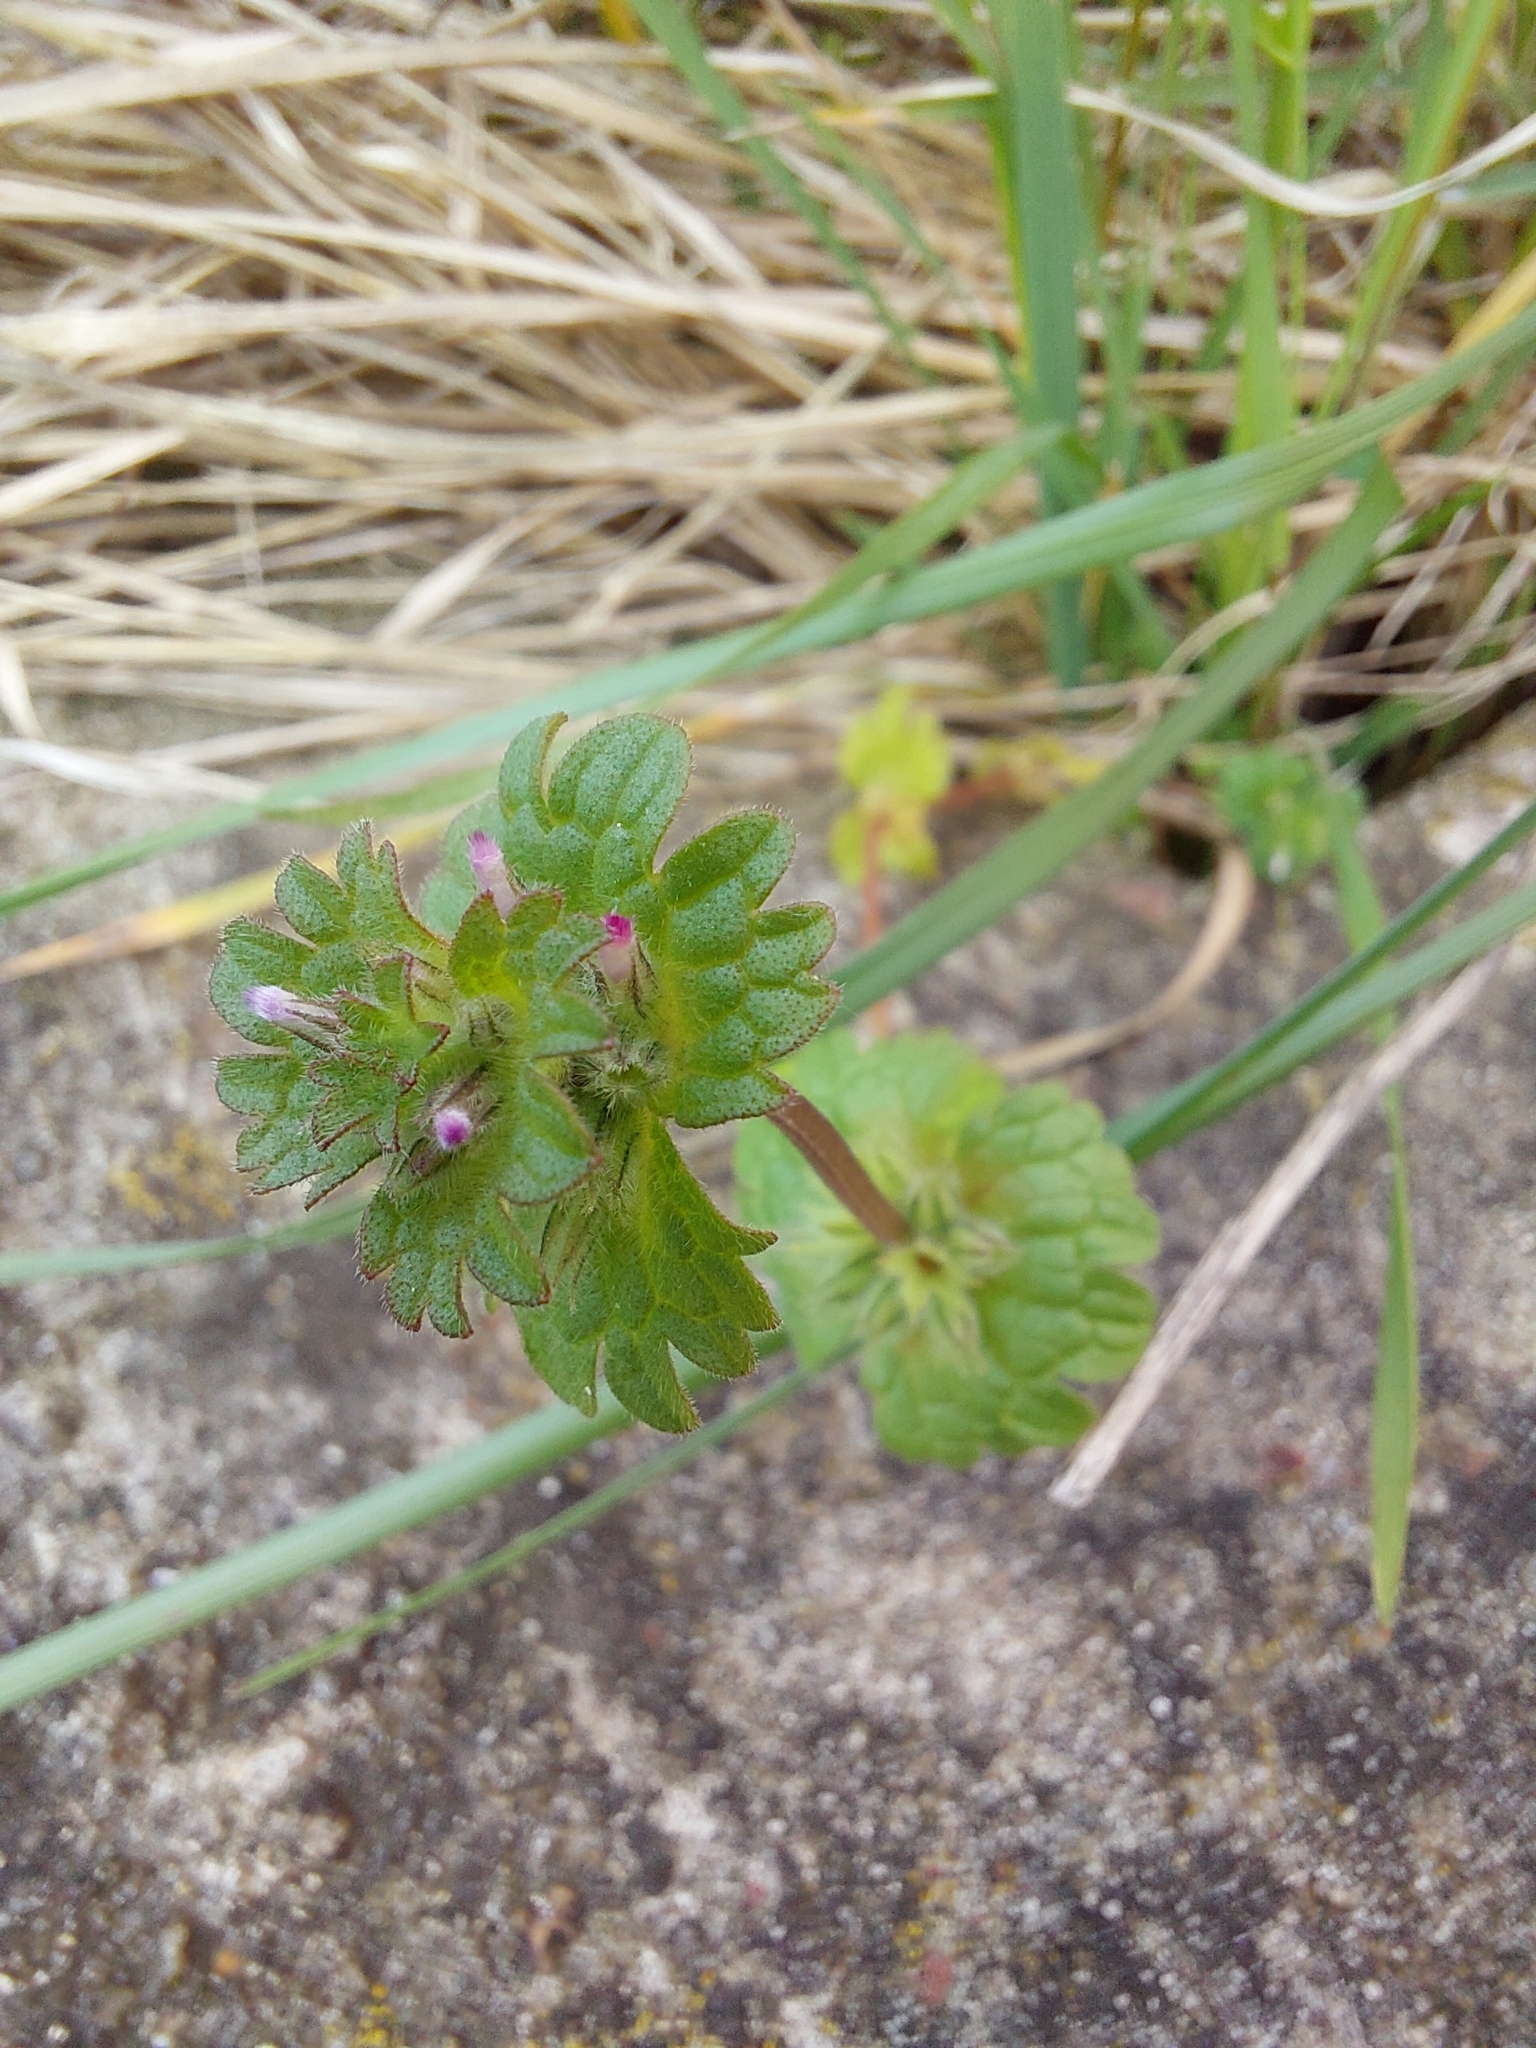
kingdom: Plantae
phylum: Tracheophyta
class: Magnoliopsida
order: Lamiales
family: Lamiaceae
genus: Lamium
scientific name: Lamium amplexicaule
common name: Henbit dead-nettle
